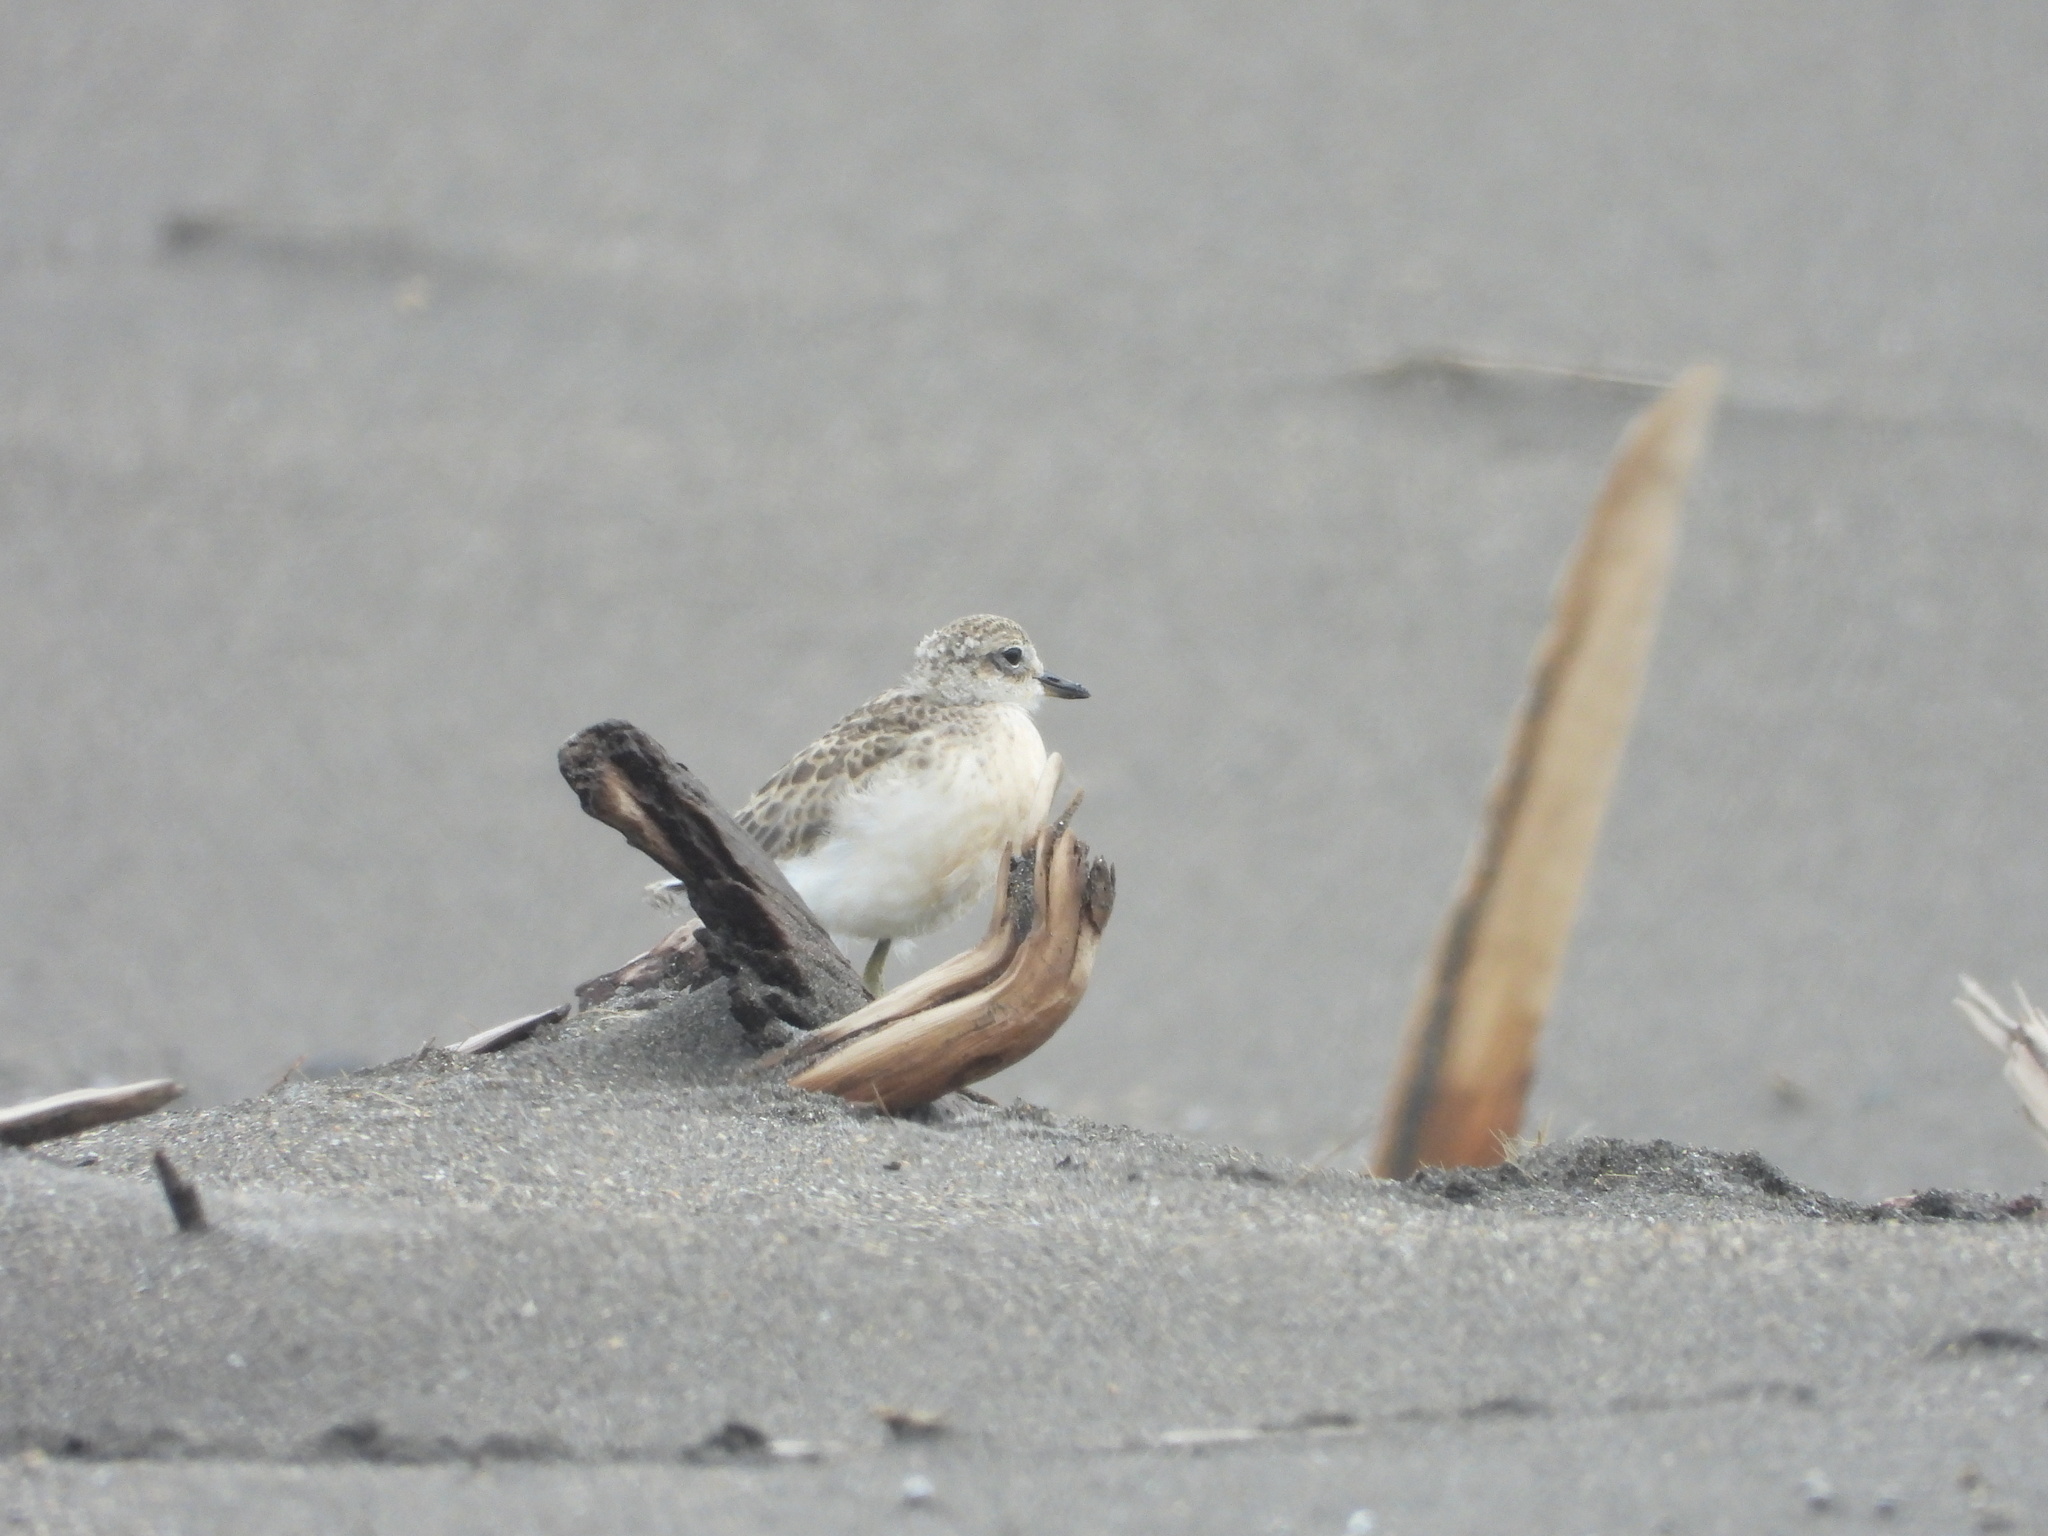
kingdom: Animalia
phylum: Chordata
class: Aves
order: Charadriiformes
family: Charadriidae
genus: Anarhynchus
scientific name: Anarhynchus
